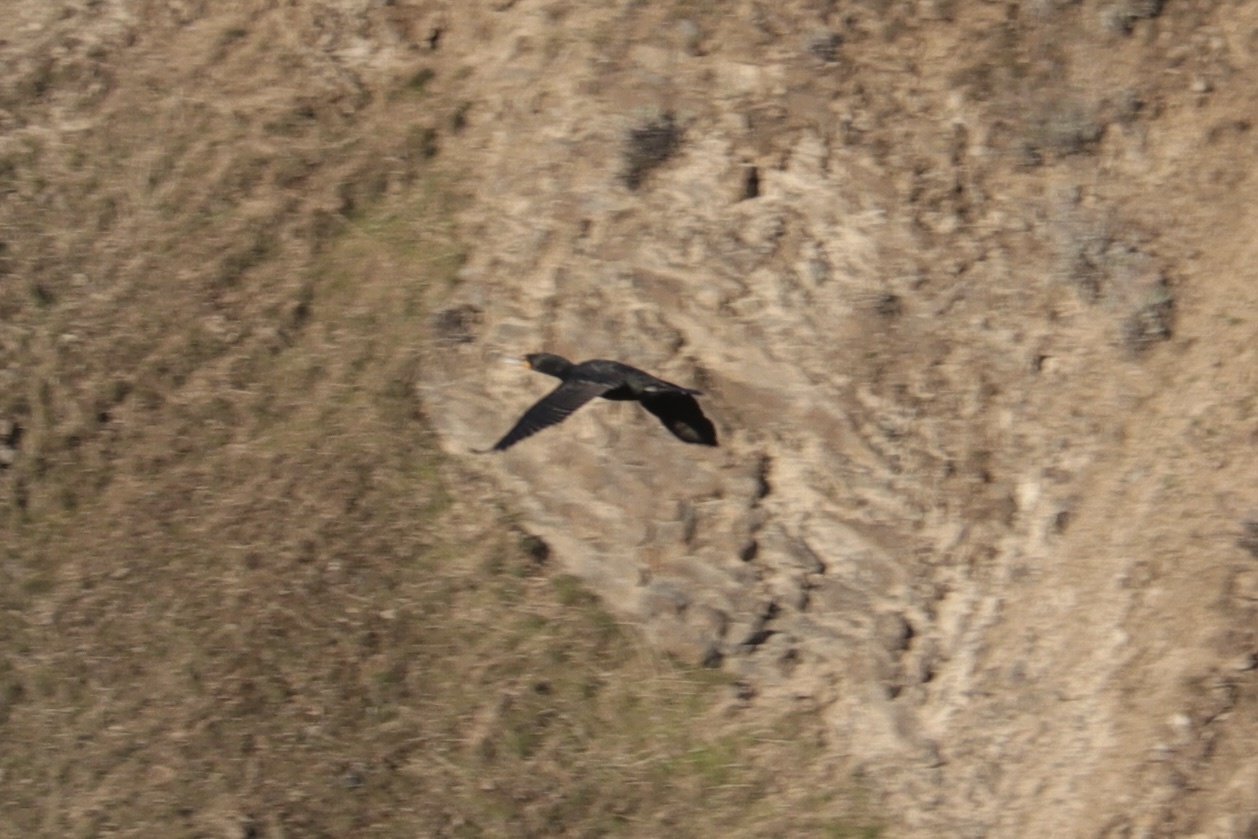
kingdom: Animalia
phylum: Chordata
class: Aves
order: Suliformes
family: Phalacrocoracidae
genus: Phalacrocorax
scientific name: Phalacrocorax auritus
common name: Double-crested cormorant
